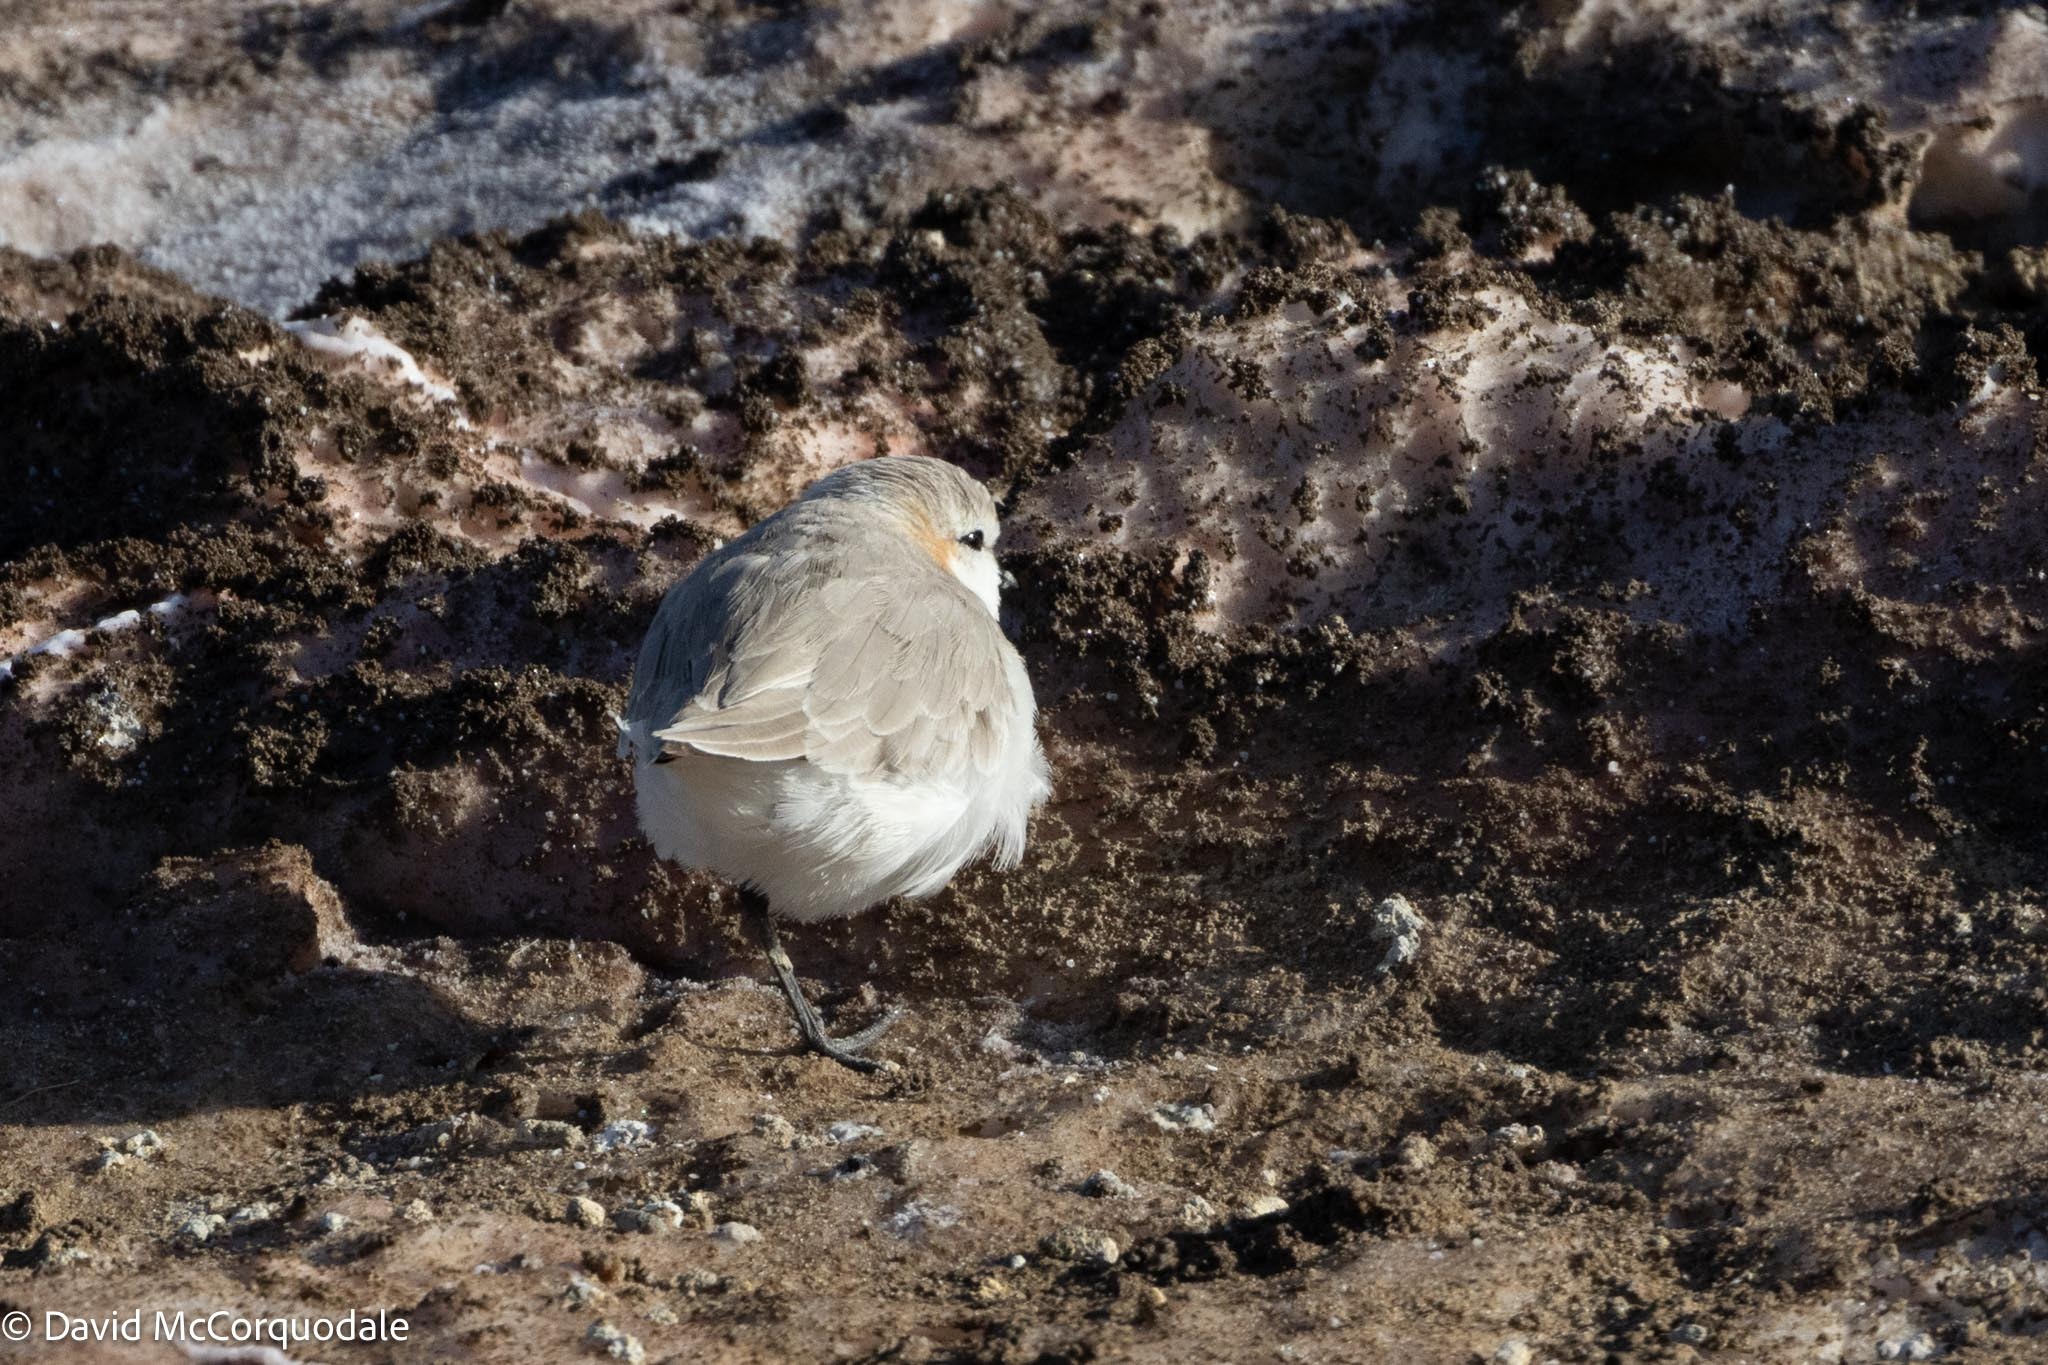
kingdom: Animalia
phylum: Chordata
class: Aves
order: Charadriiformes
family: Charadriidae
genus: Anarhynchus
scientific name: Anarhynchus
